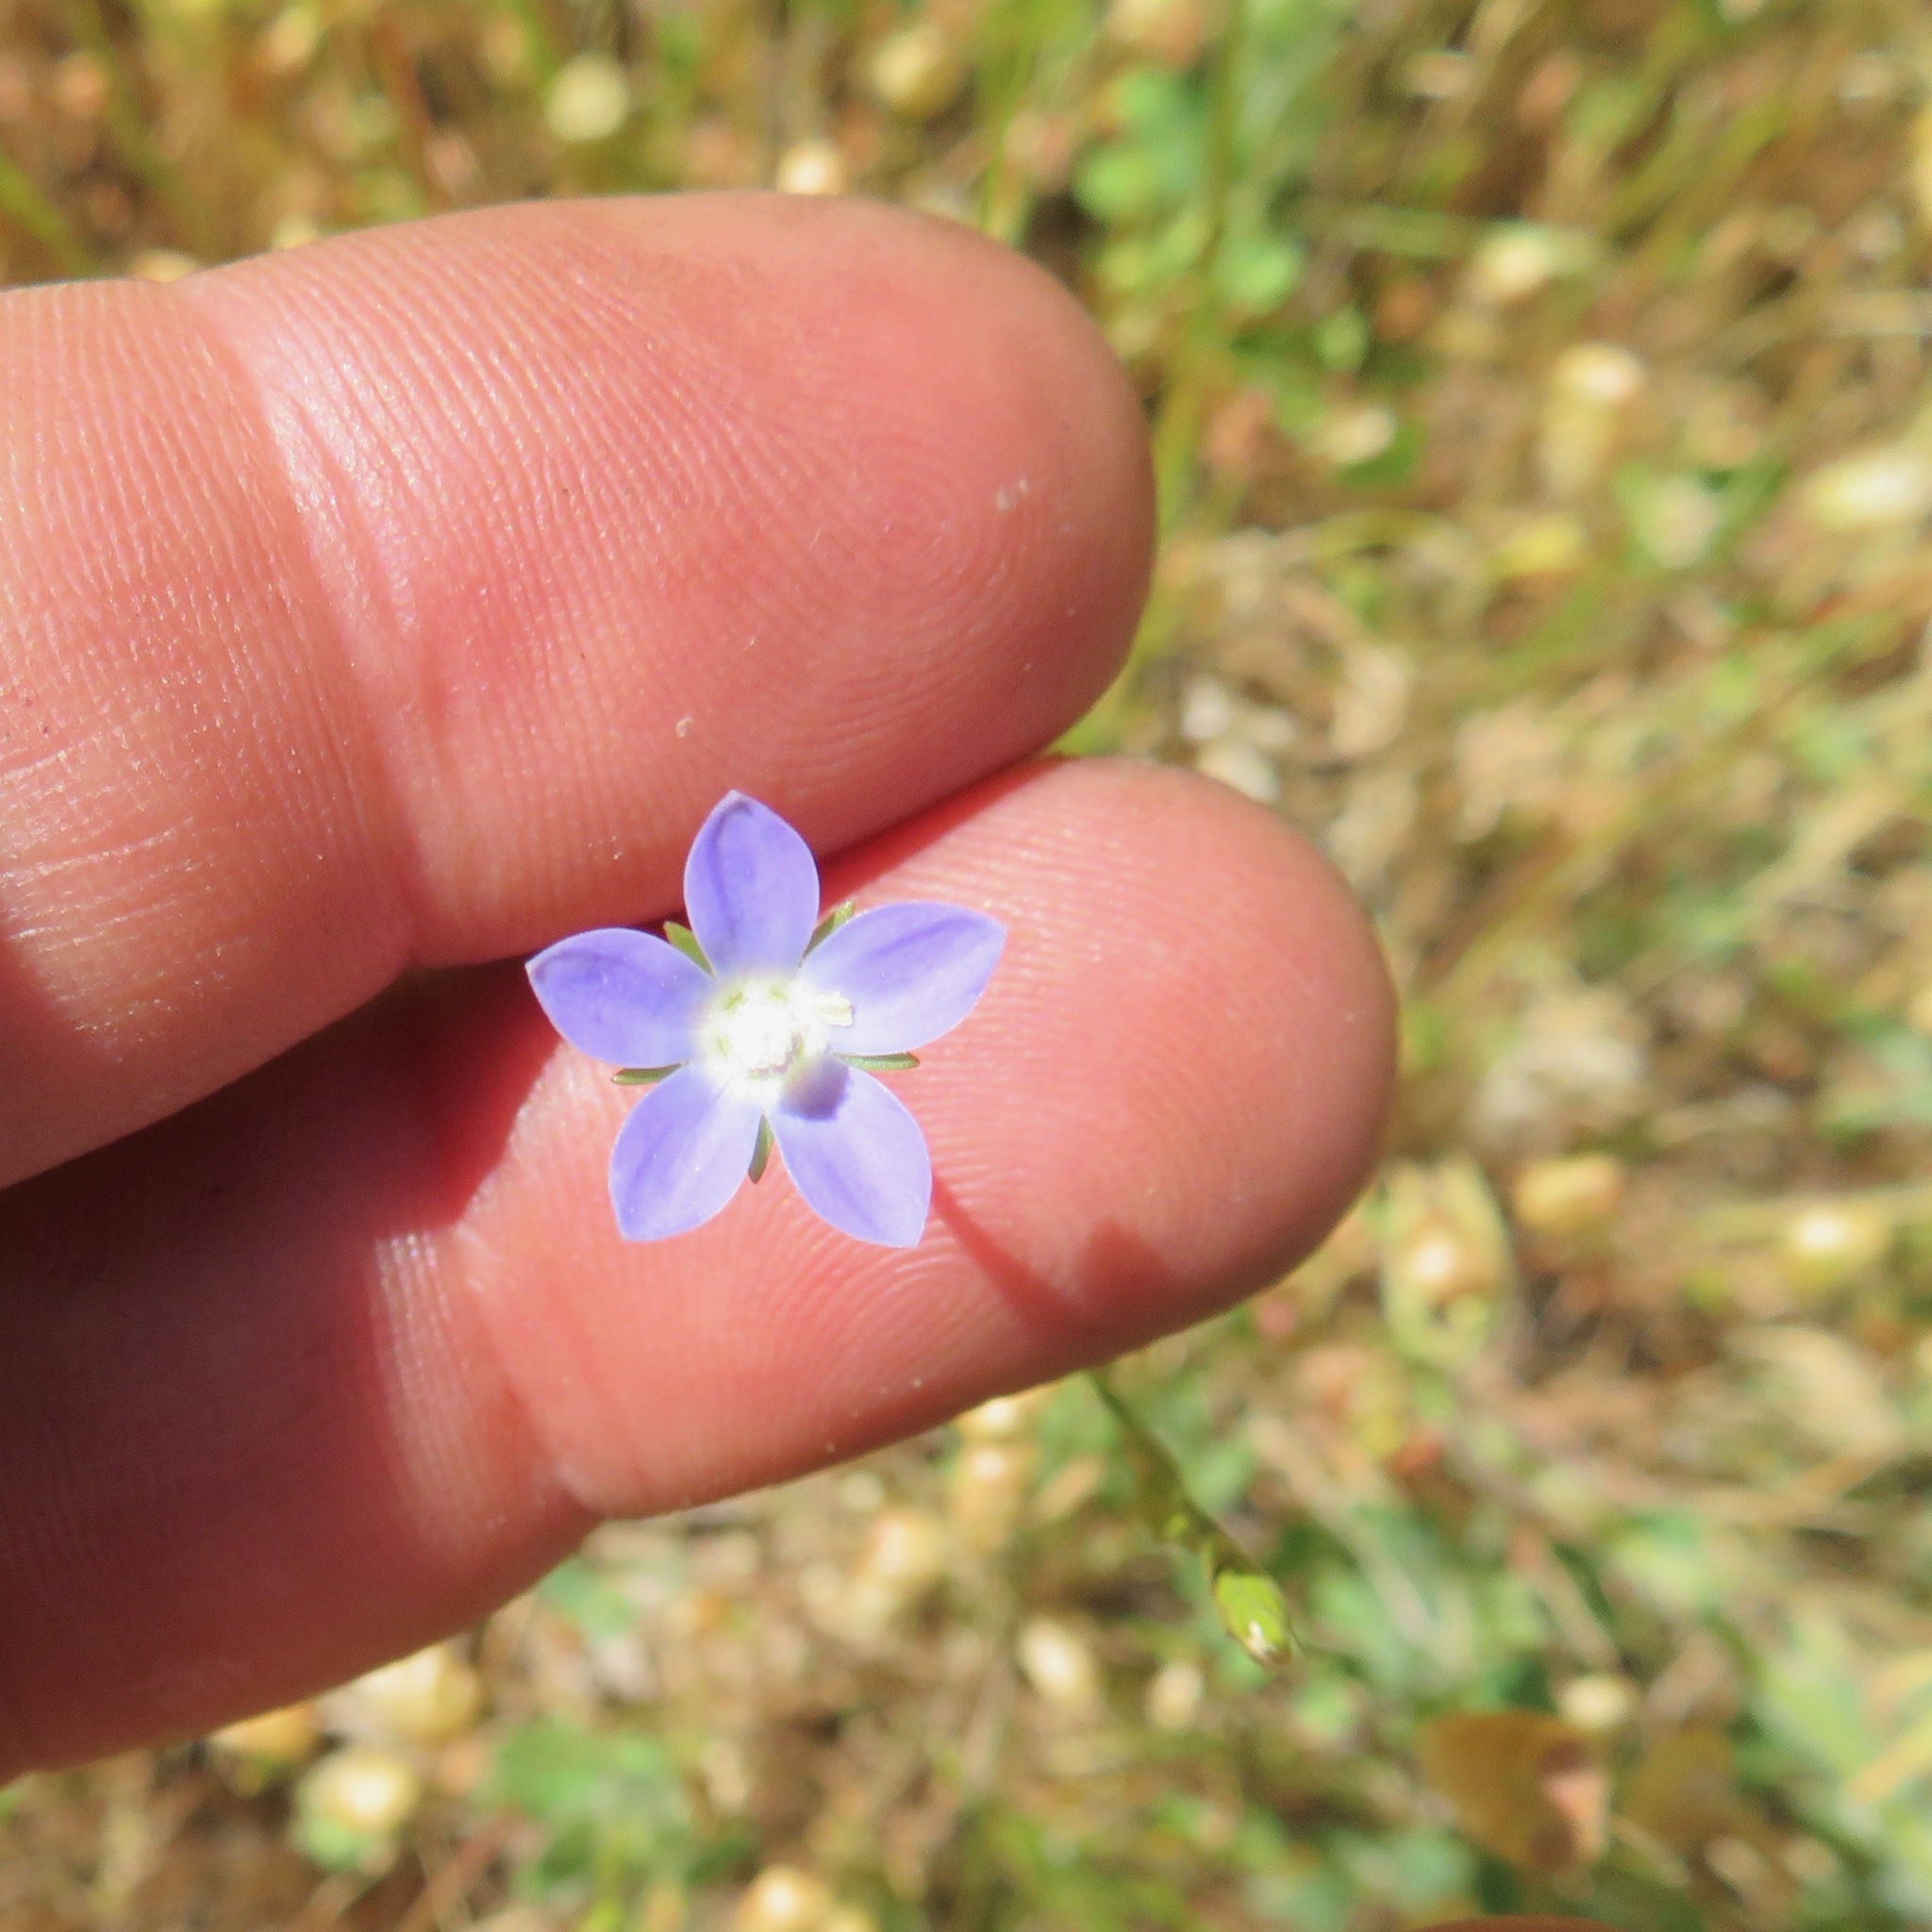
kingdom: Plantae
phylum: Tracheophyta
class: Magnoliopsida
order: Asterales
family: Campanulaceae
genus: Wahlenbergia
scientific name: Wahlenbergia marginata
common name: Southern rockbell
